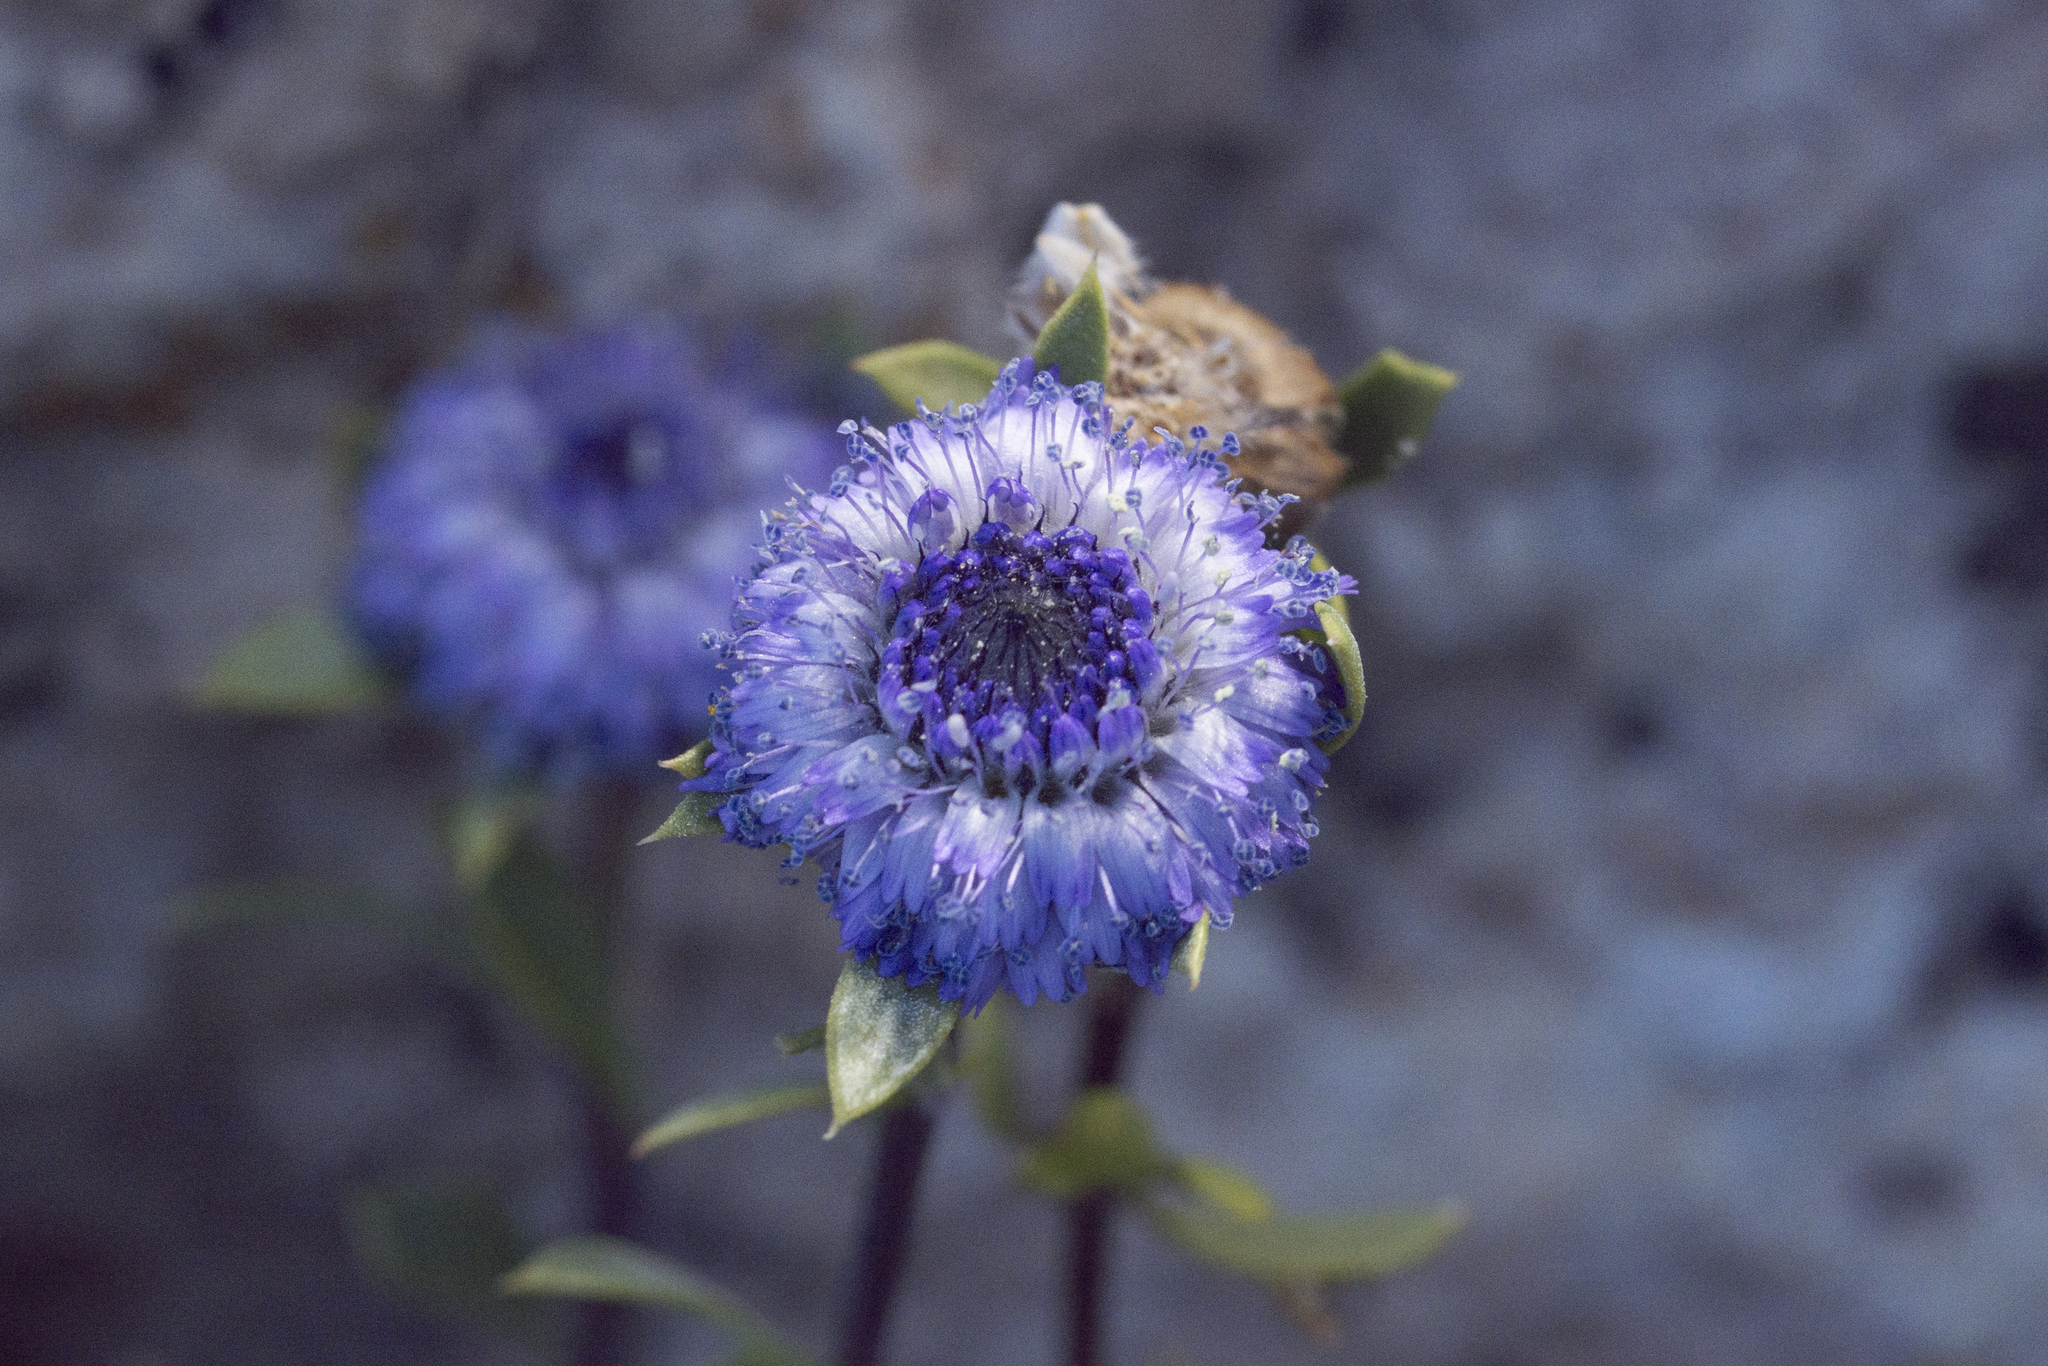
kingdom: Plantae
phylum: Tracheophyta
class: Magnoliopsida
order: Lamiales
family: Plantaginaceae
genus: Globularia
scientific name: Globularia alypum
